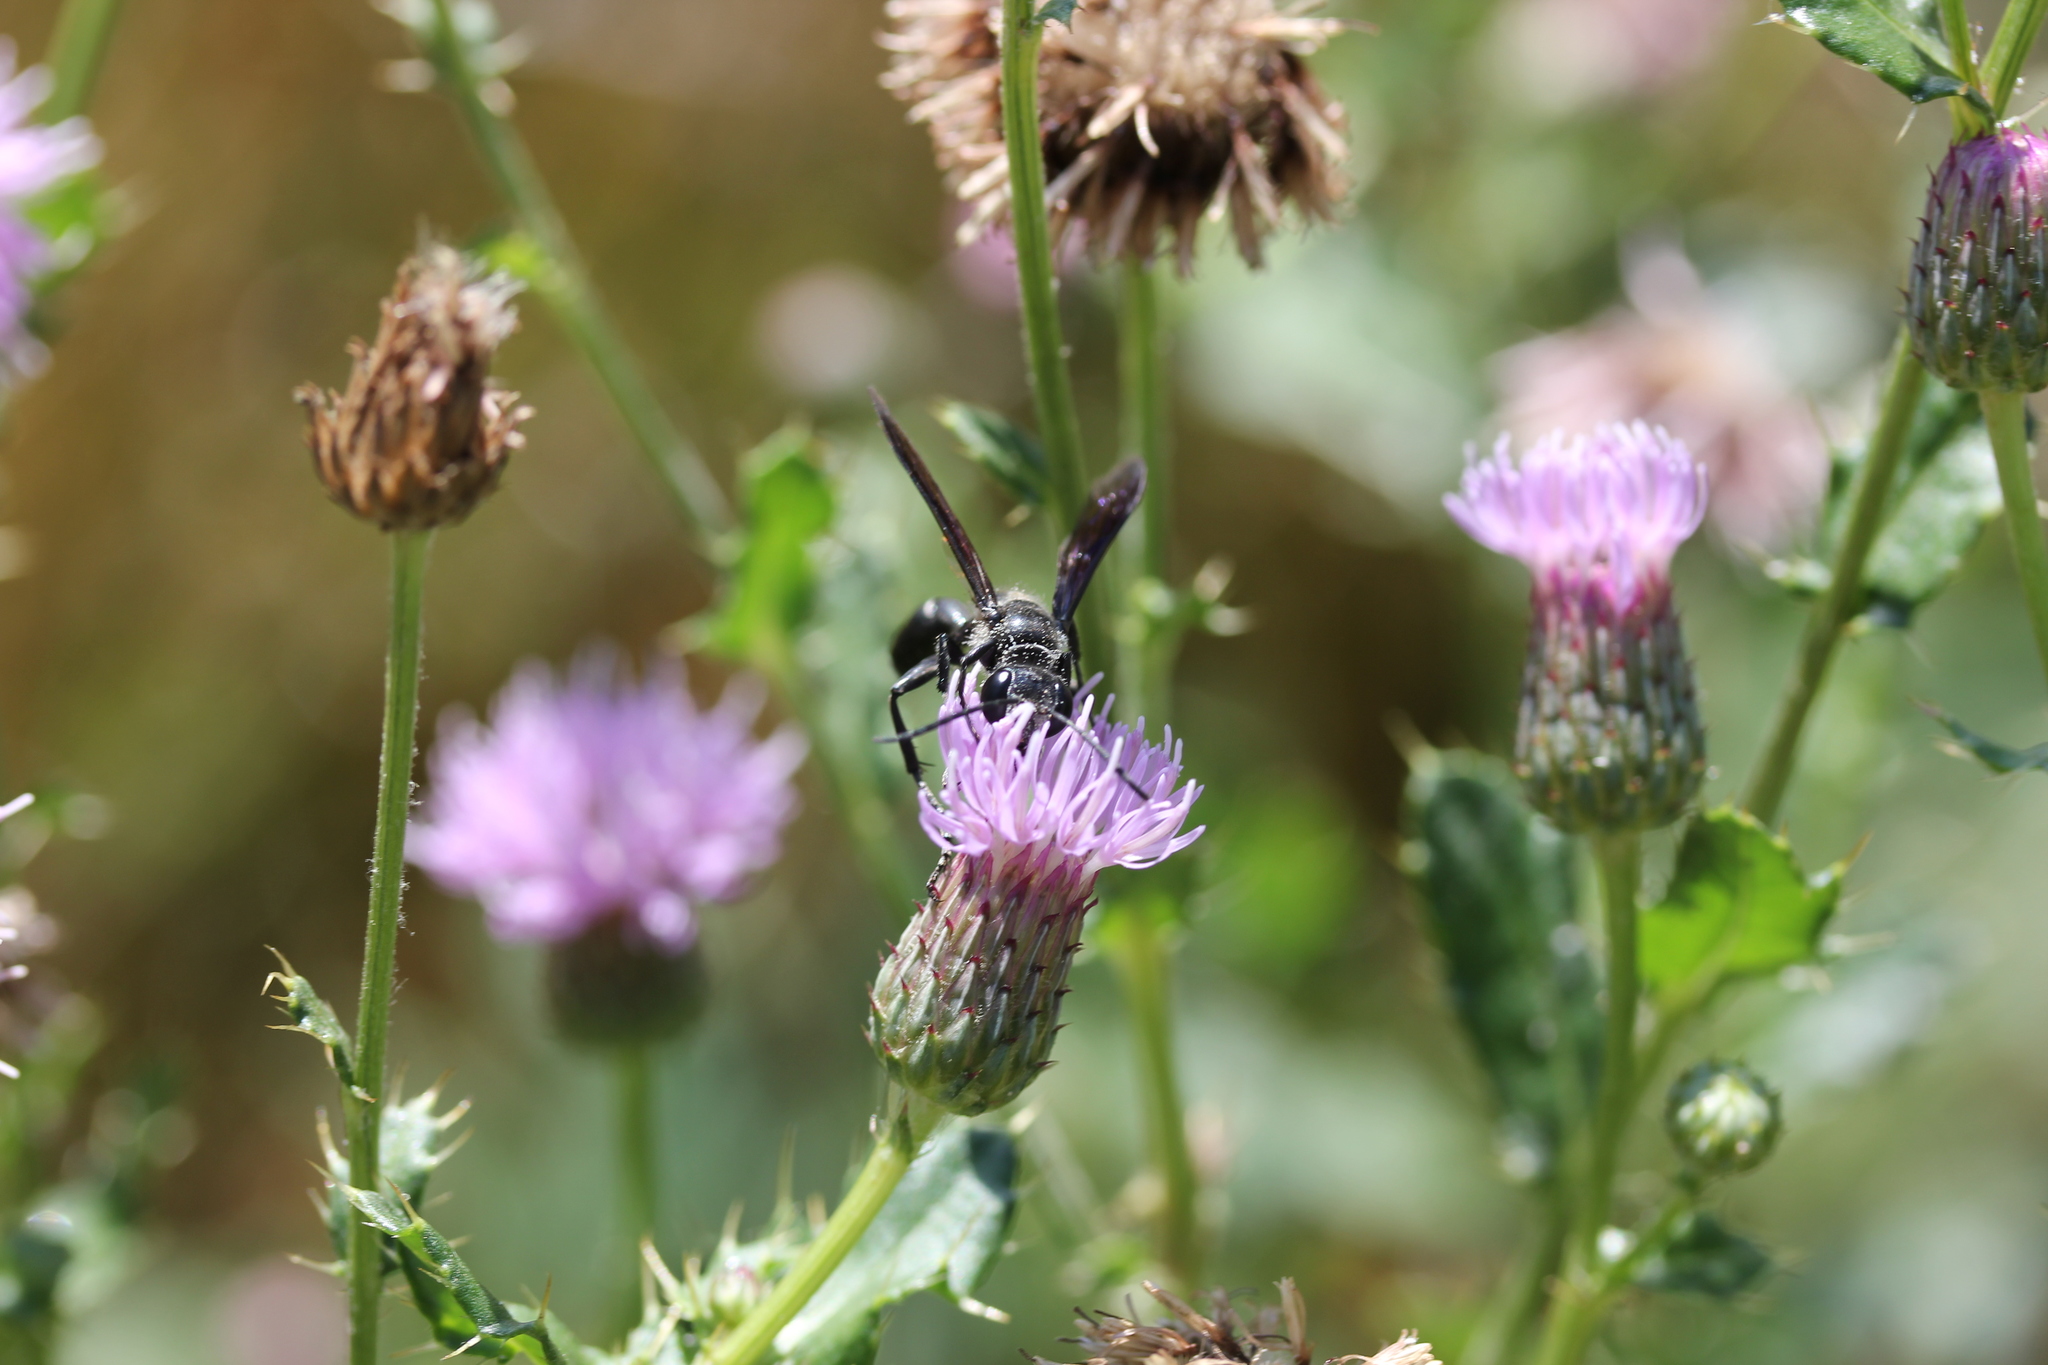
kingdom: Plantae
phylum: Tracheophyta
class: Magnoliopsida
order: Asterales
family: Asteraceae
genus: Cirsium
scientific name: Cirsium arvense
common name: Creeping thistle
